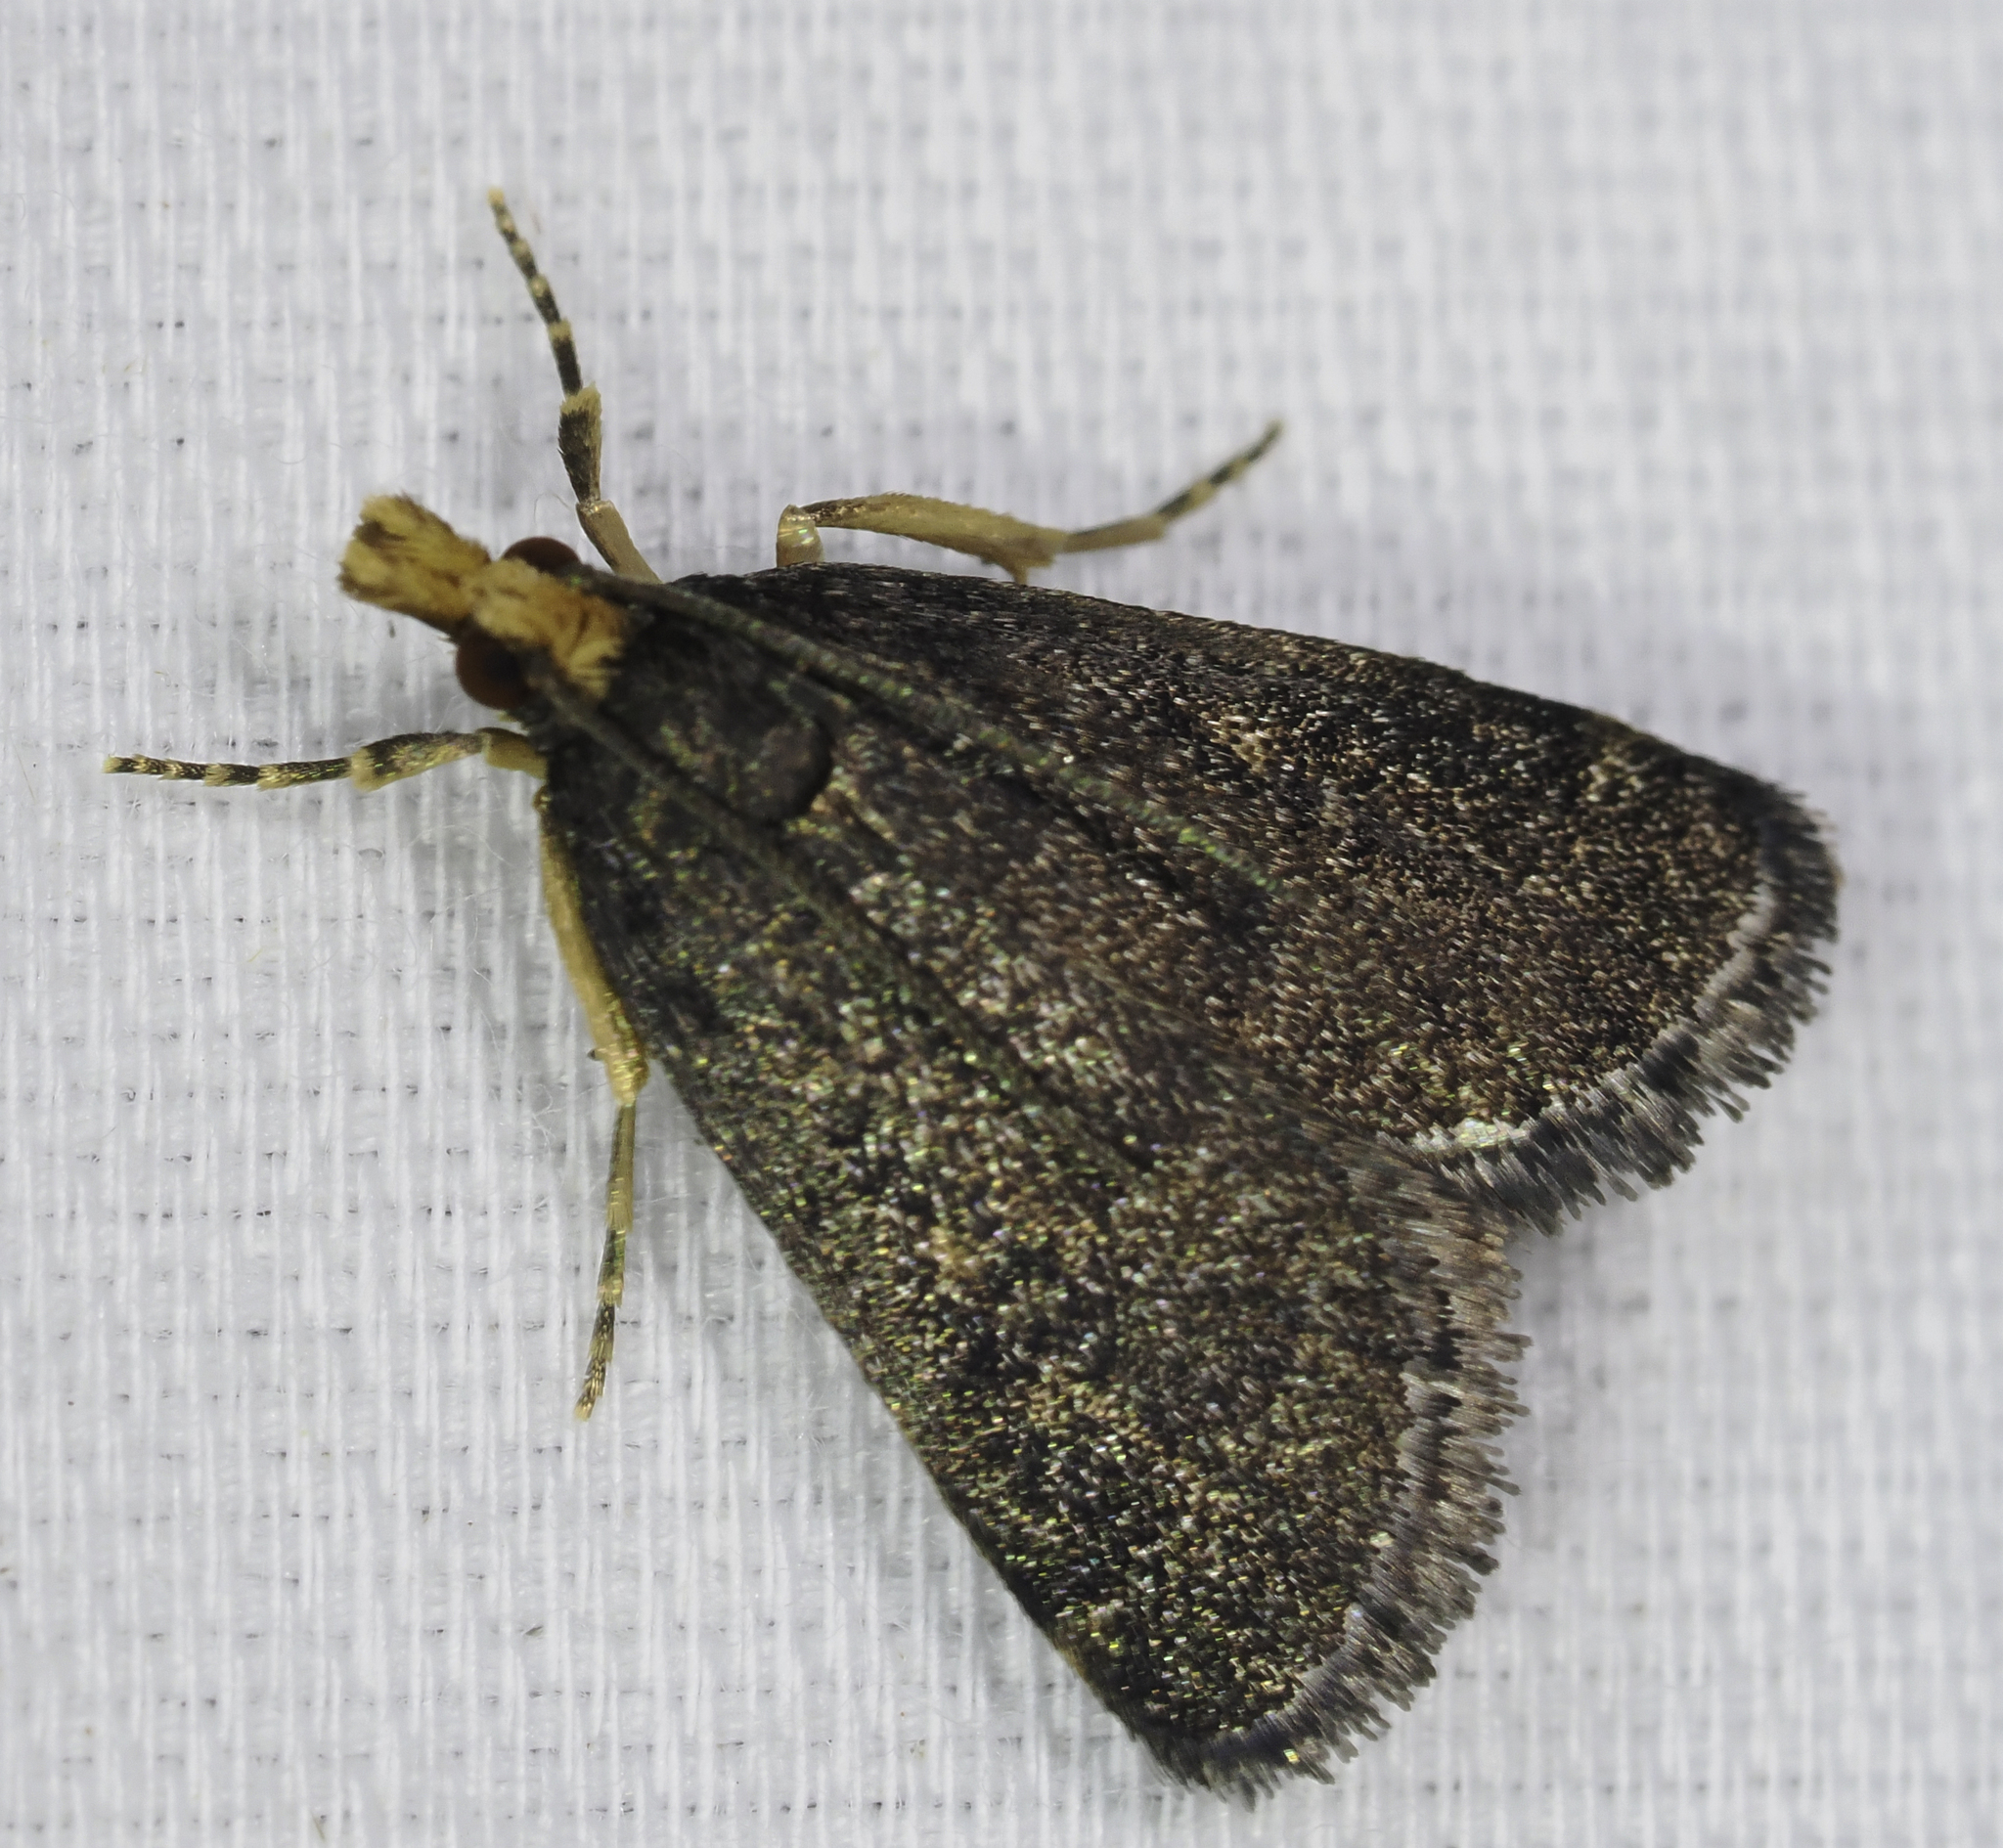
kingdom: Animalia
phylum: Arthropoda
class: Insecta
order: Lepidoptera
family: Crambidae
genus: Pyrausta
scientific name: Pyrausta merrickalis
